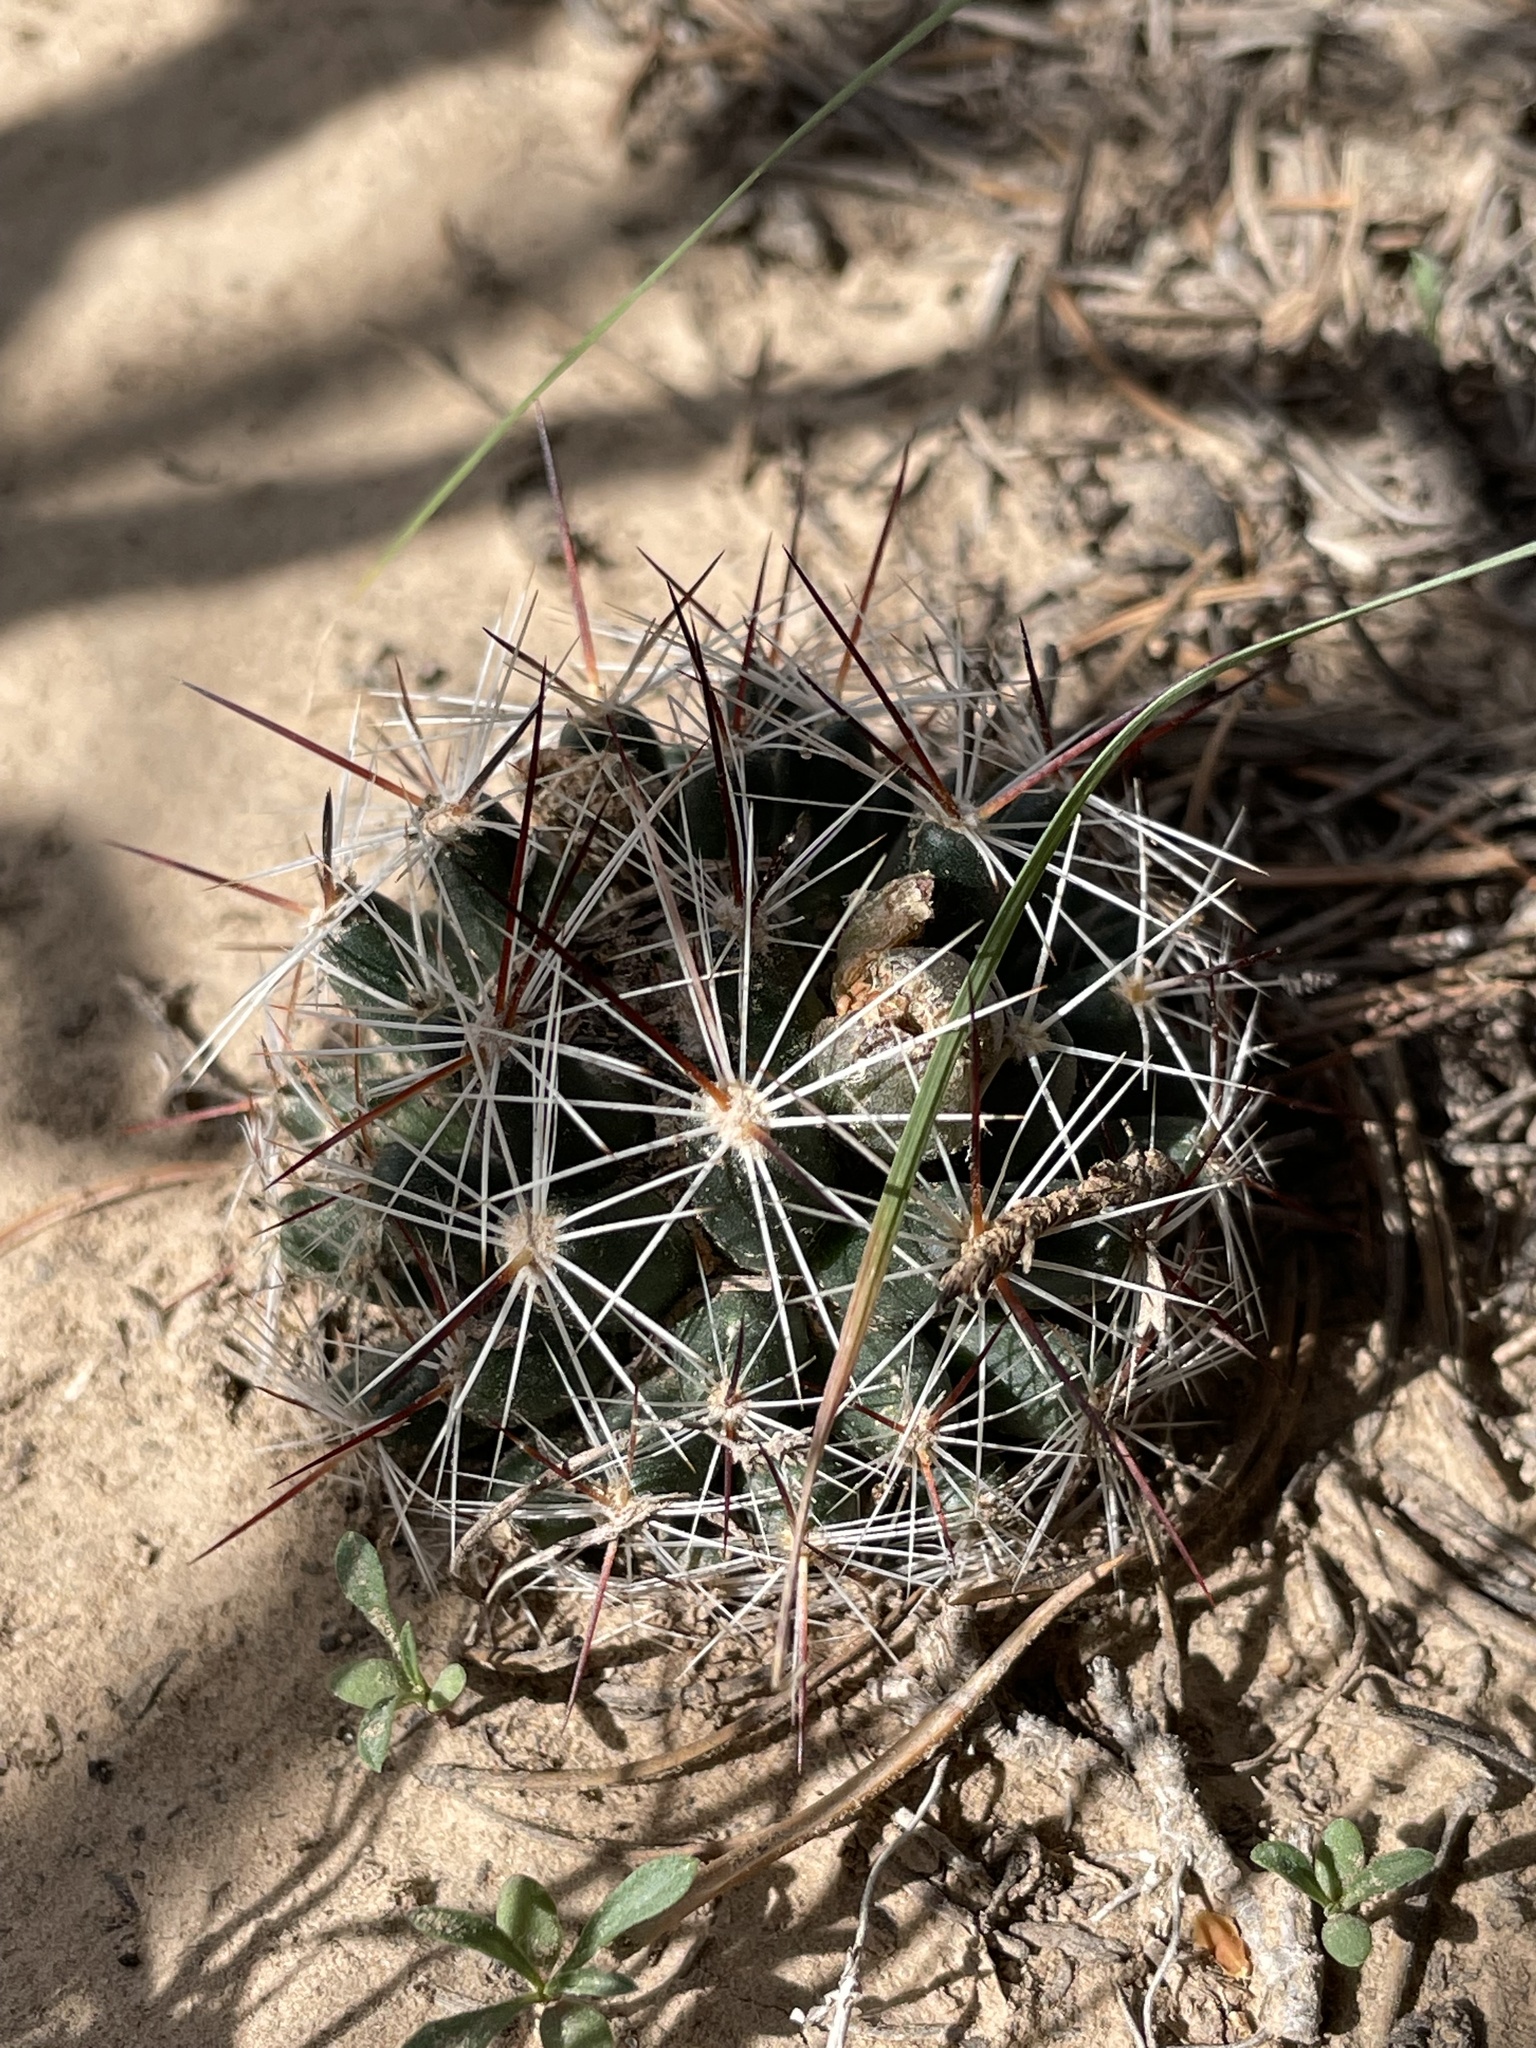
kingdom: Plantae
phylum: Tracheophyta
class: Magnoliopsida
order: Caryophyllales
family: Cactaceae
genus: Pelecyphora
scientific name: Pelecyphora vivipara
